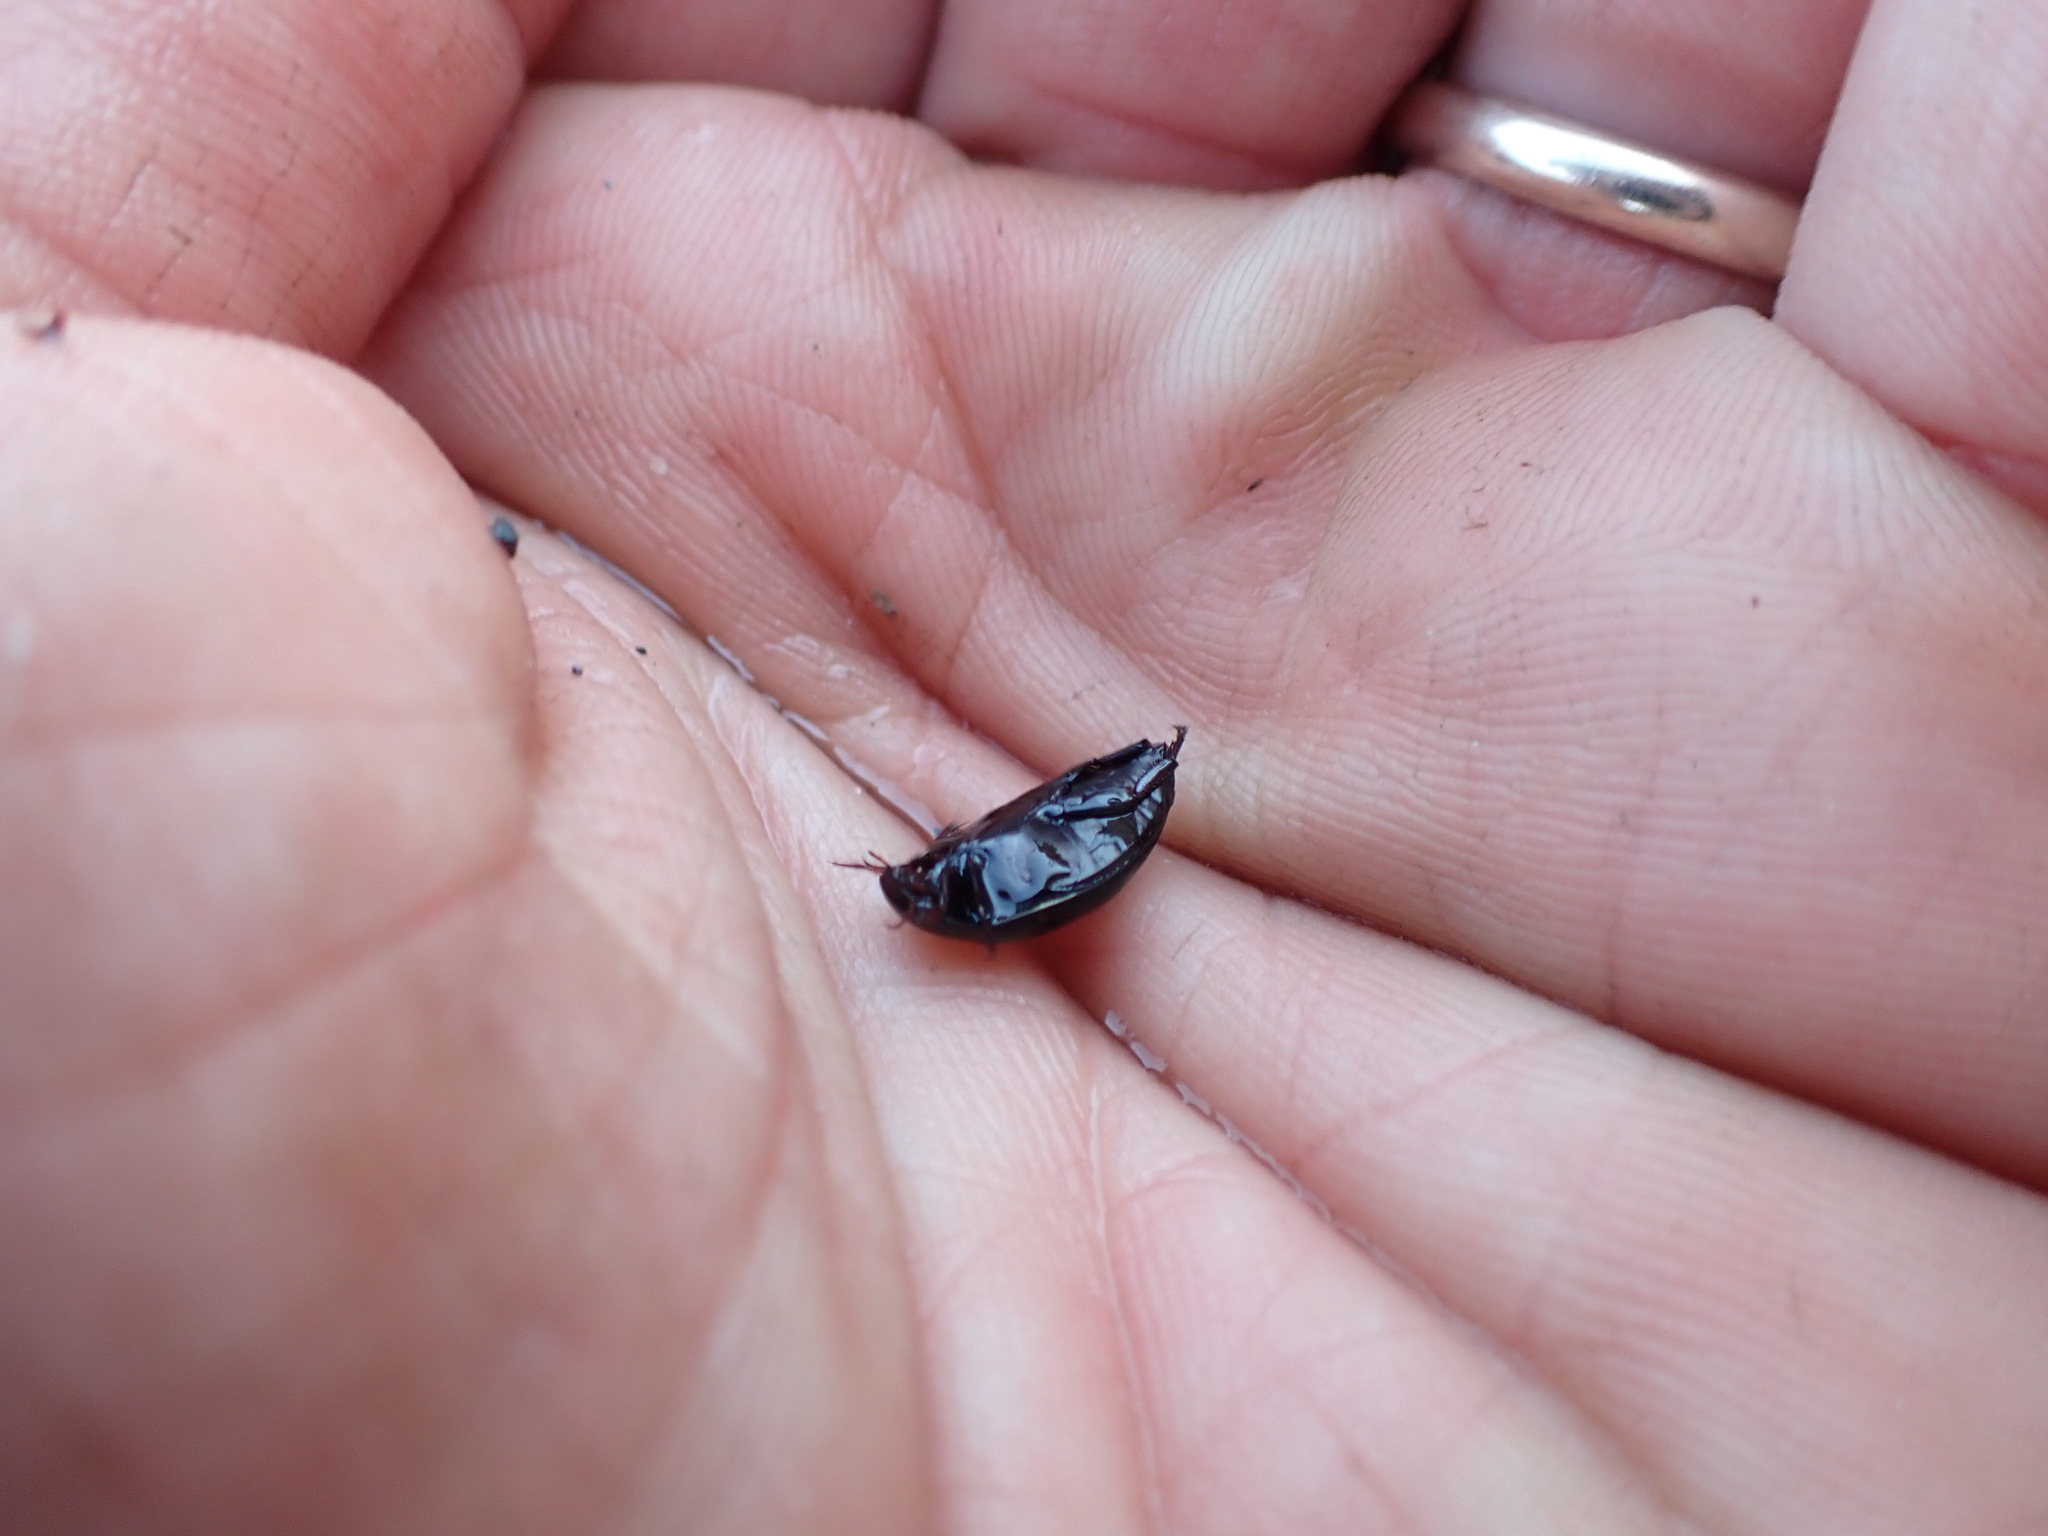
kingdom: Animalia
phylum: Arthropoda
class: Insecta
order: Coleoptera
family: Dytiscidae
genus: Ilybius
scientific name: Ilybius quadrimaculatus
